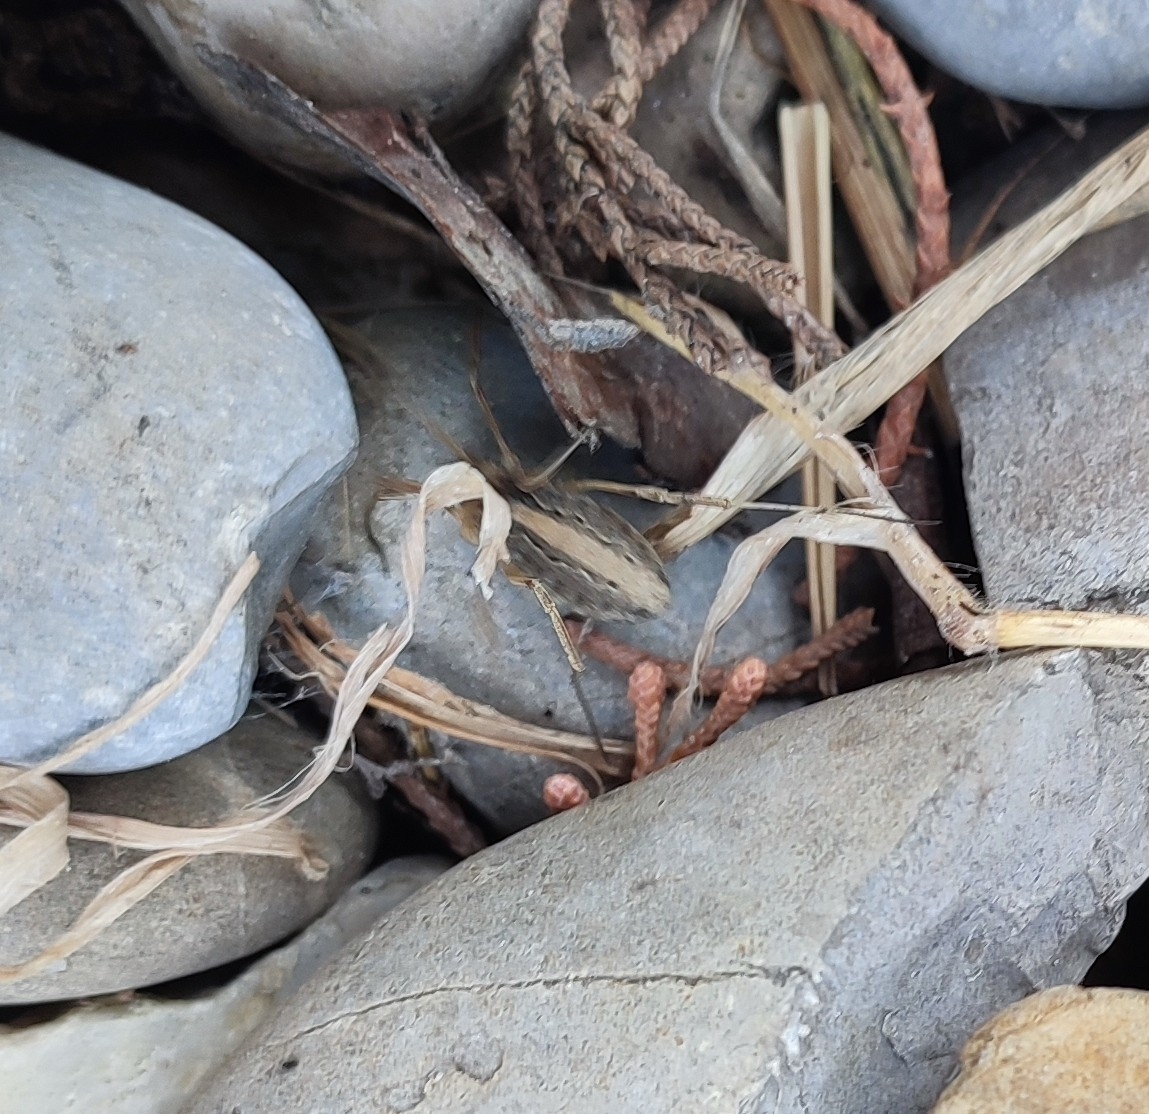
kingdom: Animalia
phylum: Arthropoda
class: Arachnida
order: Opiliones
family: Phalangiidae
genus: Odiellus
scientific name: Odiellus troguloides
